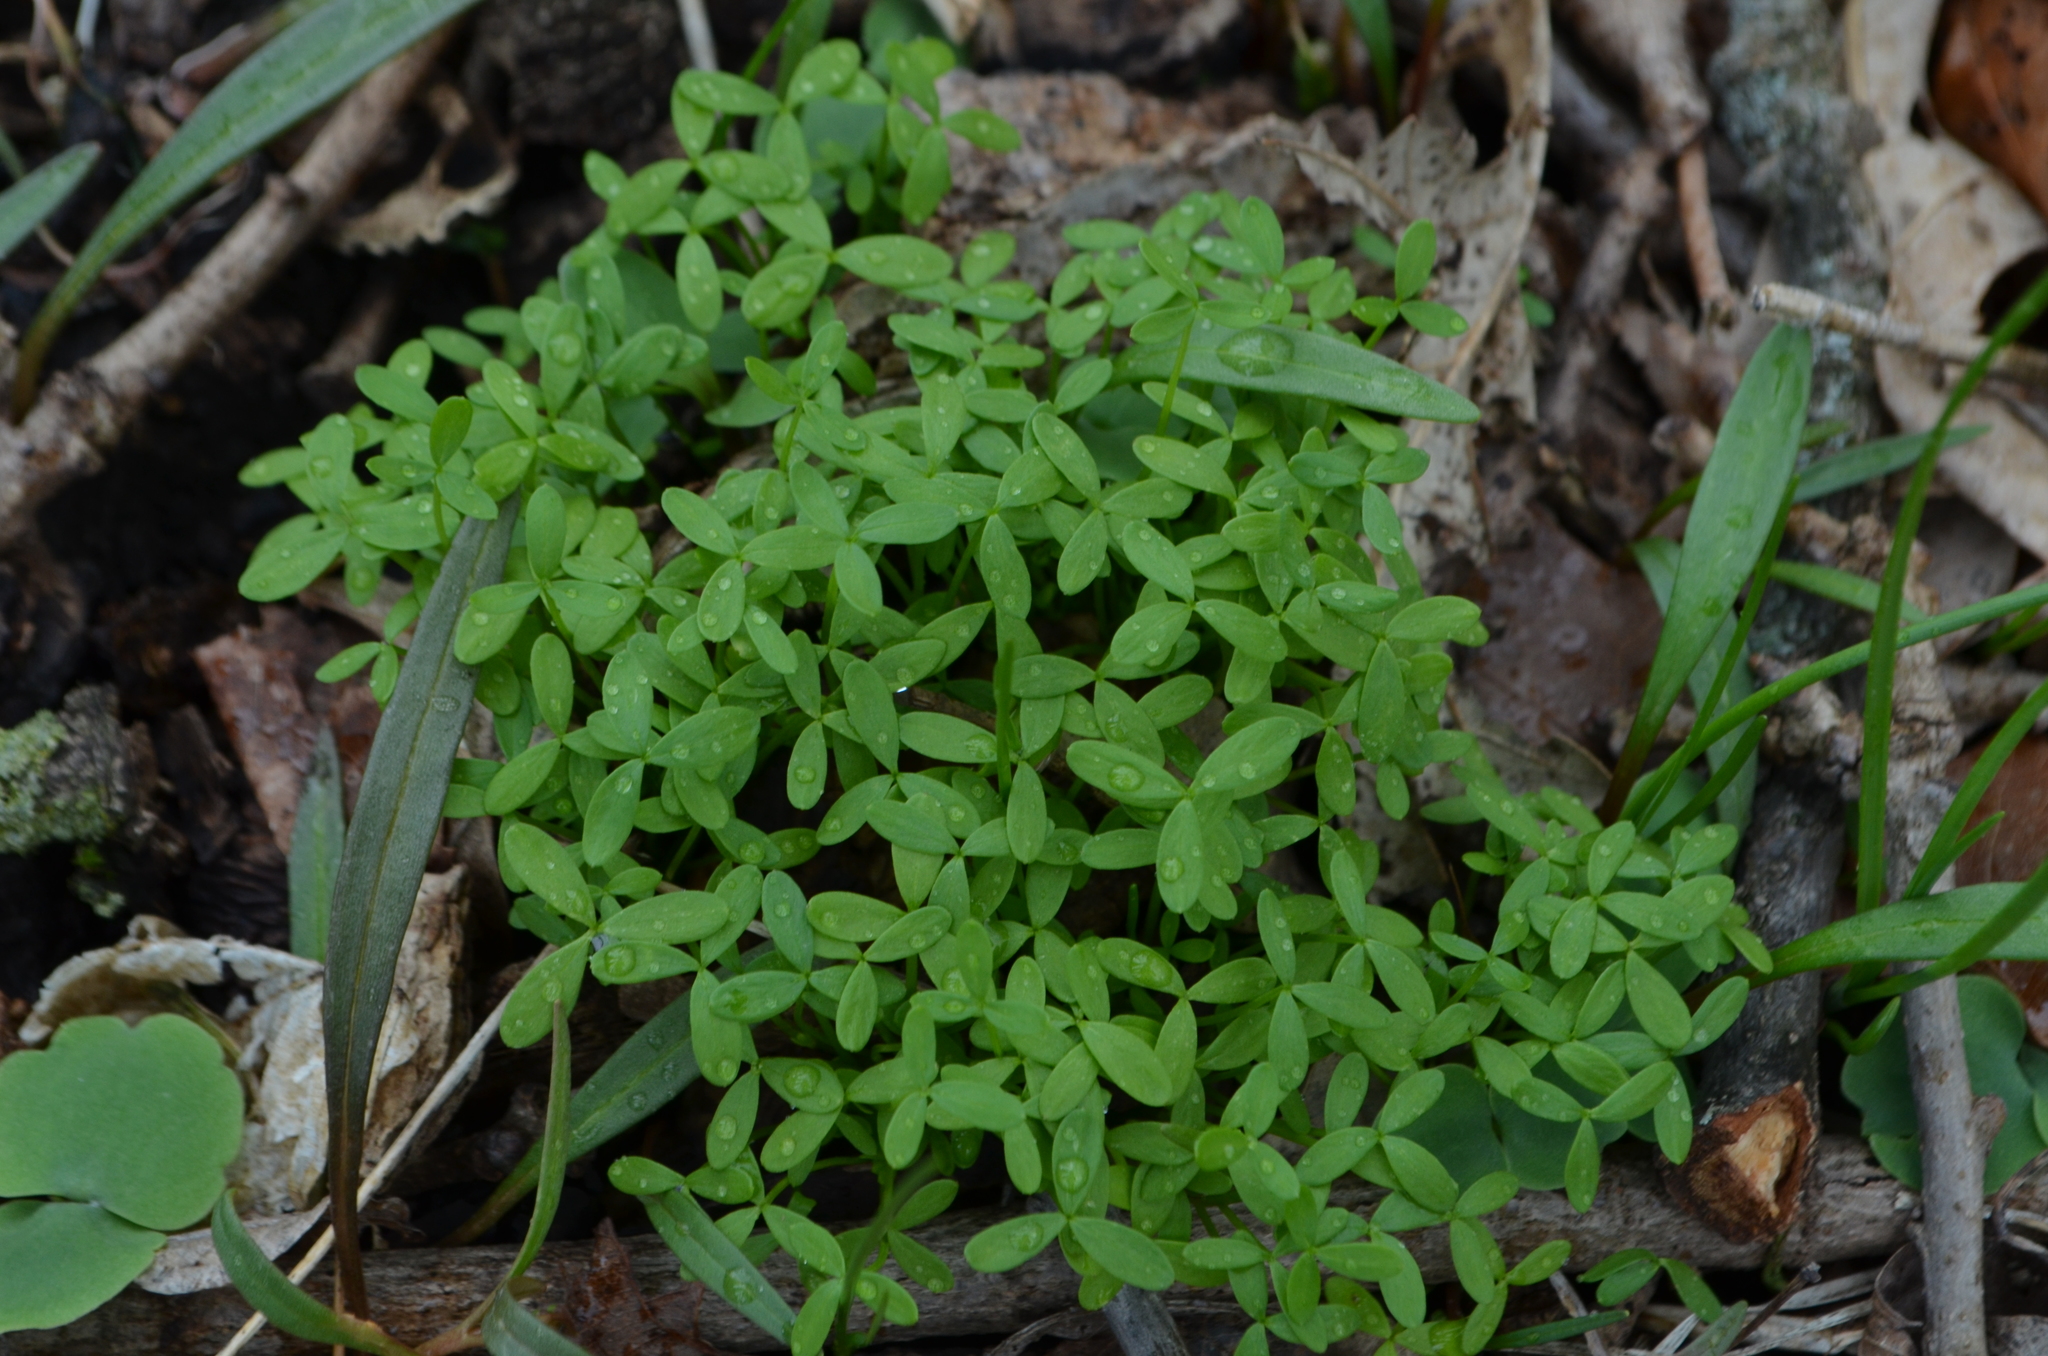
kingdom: Plantae
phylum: Tracheophyta
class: Magnoliopsida
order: Brassicales
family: Limnanthaceae
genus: Floerkea
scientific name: Floerkea proserpinacoides
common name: False mermaid
